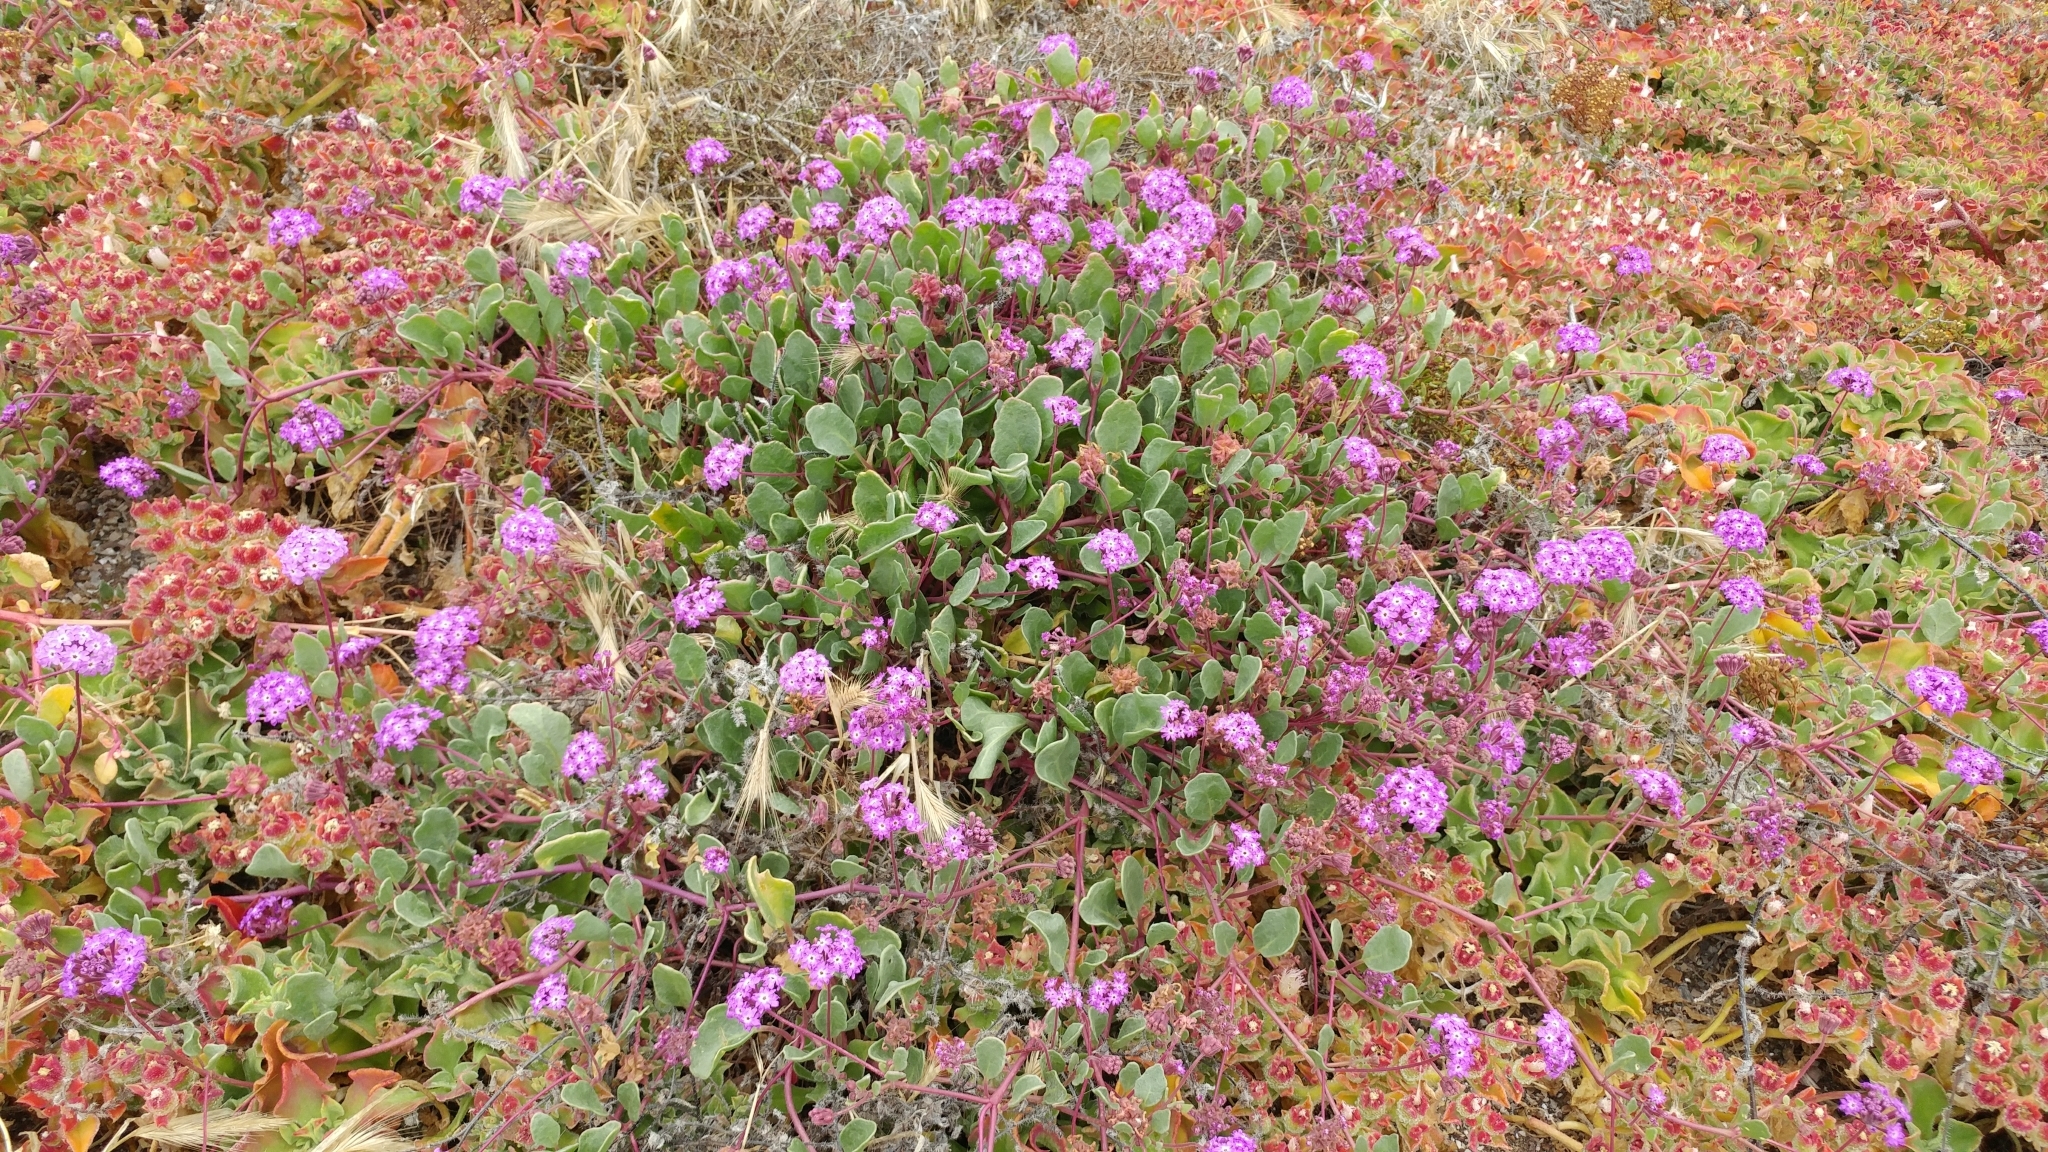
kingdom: Plantae
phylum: Tracheophyta
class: Magnoliopsida
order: Caryophyllales
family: Nyctaginaceae
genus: Abronia
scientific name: Abronia umbellata
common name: Sand-verbena
